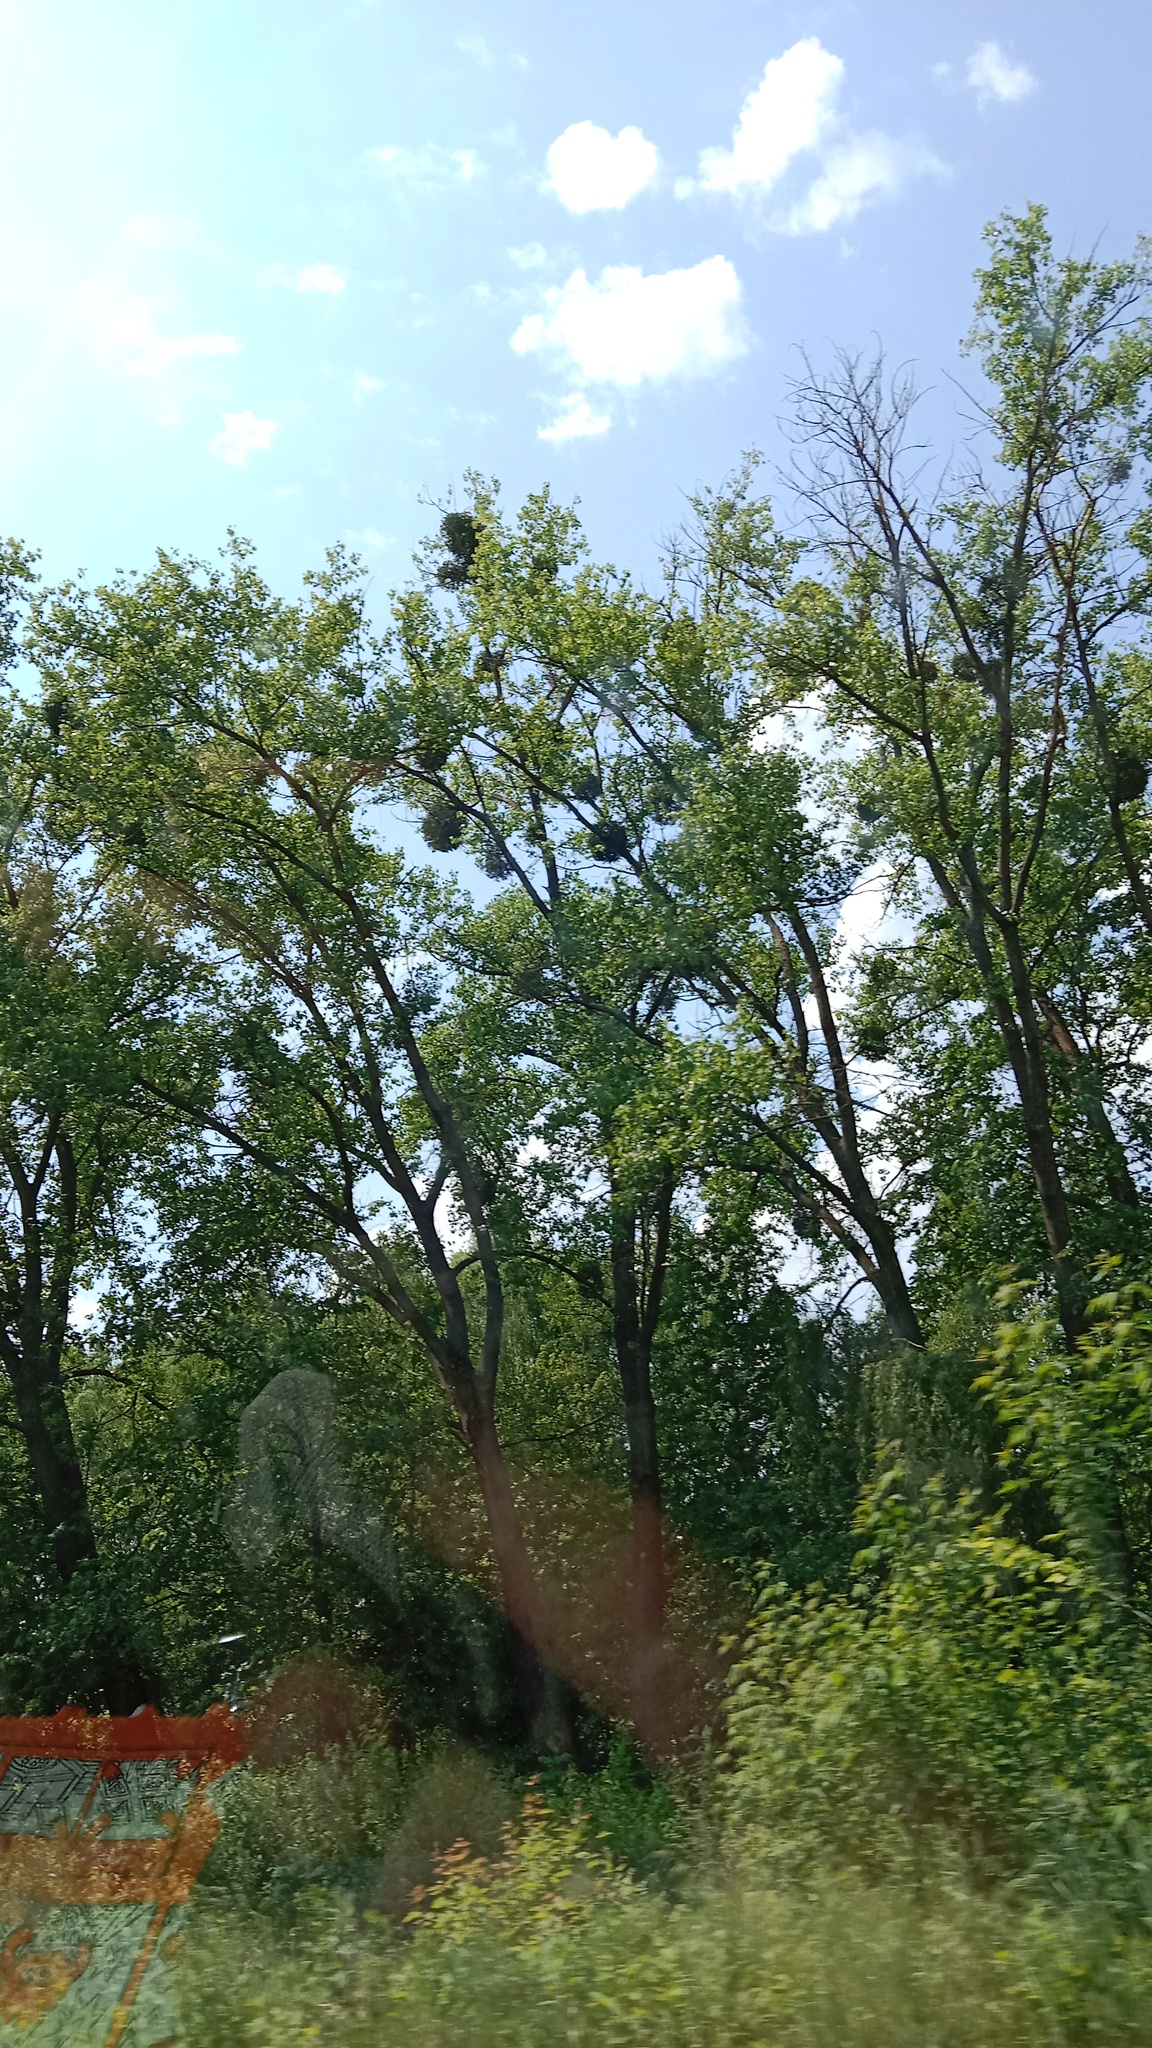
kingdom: Plantae
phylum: Tracheophyta
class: Magnoliopsida
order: Santalales
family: Viscaceae
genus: Viscum
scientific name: Viscum album
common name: Mistletoe
